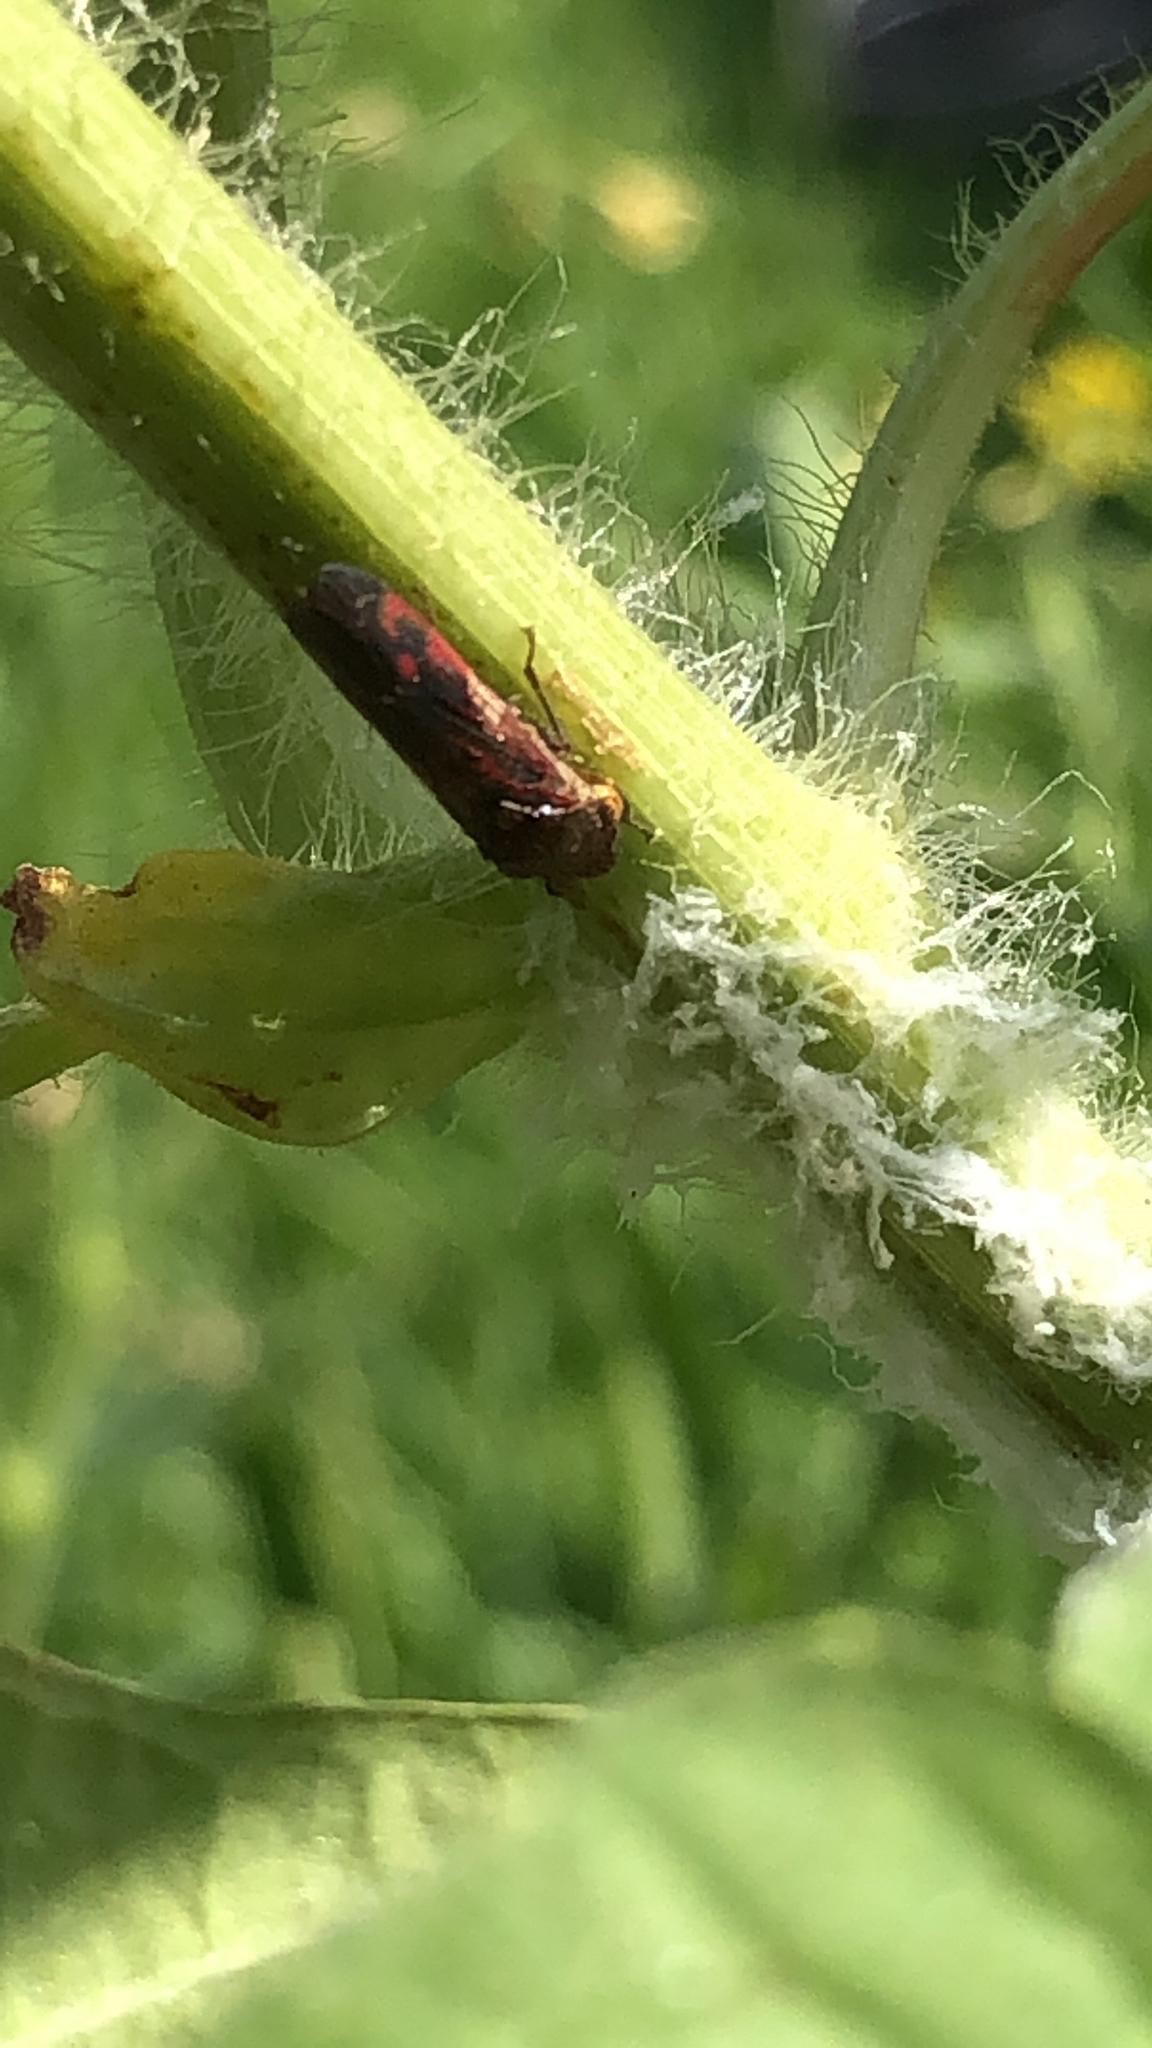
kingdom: Animalia
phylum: Arthropoda
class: Insecta
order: Hemiptera
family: Cicadellidae
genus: Homalodisca
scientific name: Homalodisca vitripennis
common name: Glassy-winged sharpshooter
